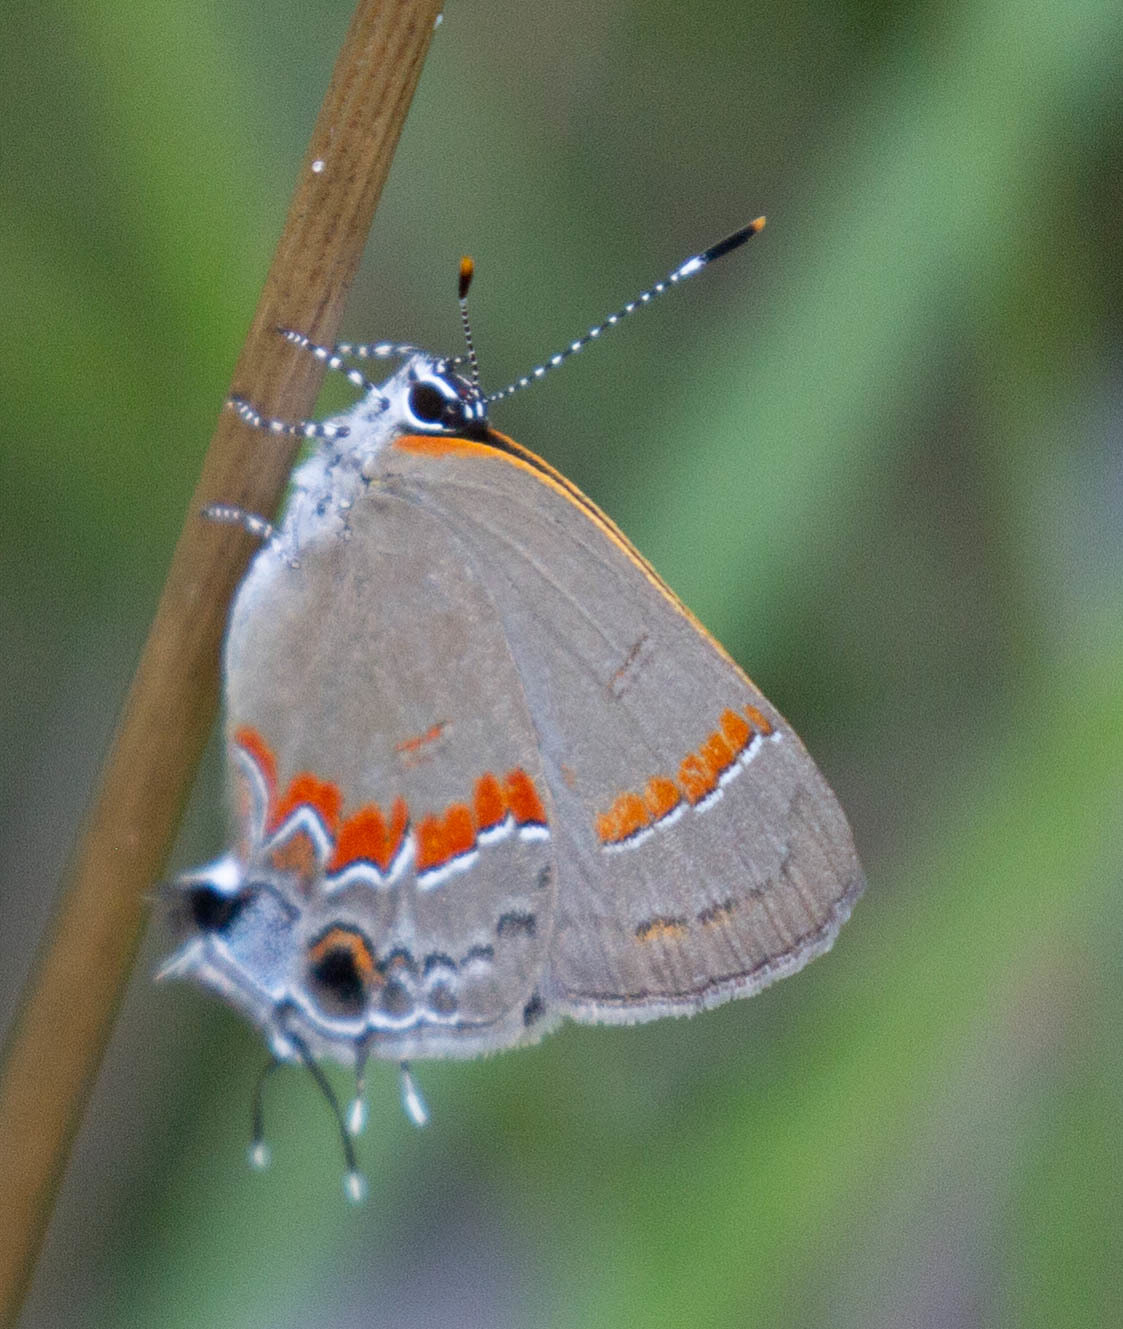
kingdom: Animalia
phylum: Arthropoda
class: Insecta
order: Lepidoptera
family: Lycaenidae
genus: Calycopis
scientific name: Calycopis cecrops
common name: Red-banded hairstreak
